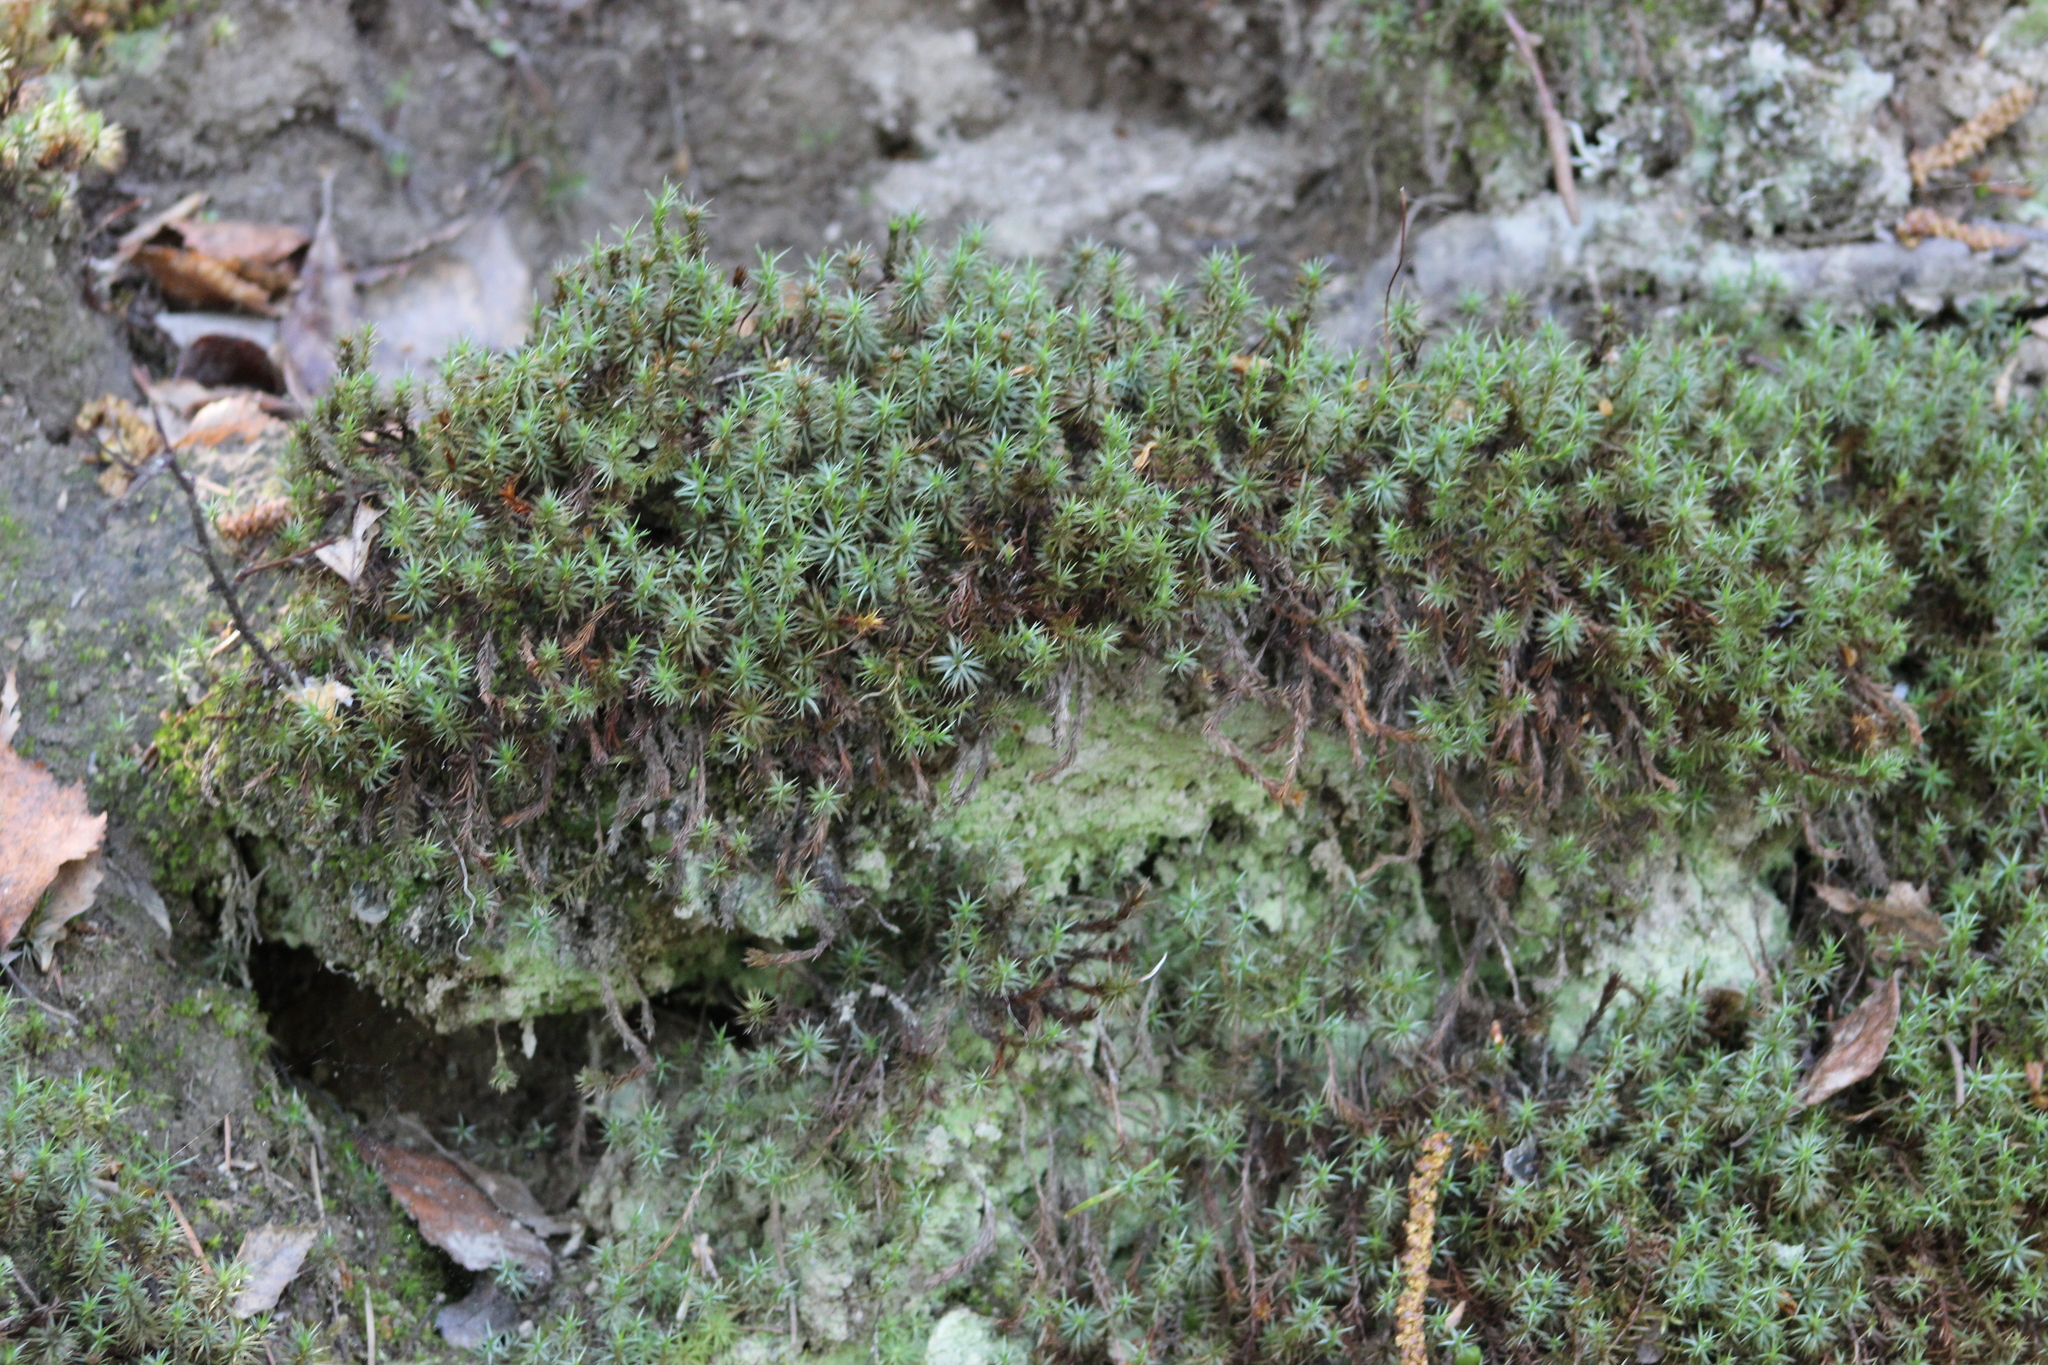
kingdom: Plantae
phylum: Bryophyta
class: Polytrichopsida
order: Polytrichales
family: Polytrichaceae
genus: Polytrichum
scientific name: Polytrichum juniperinum
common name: Juniper haircap moss
